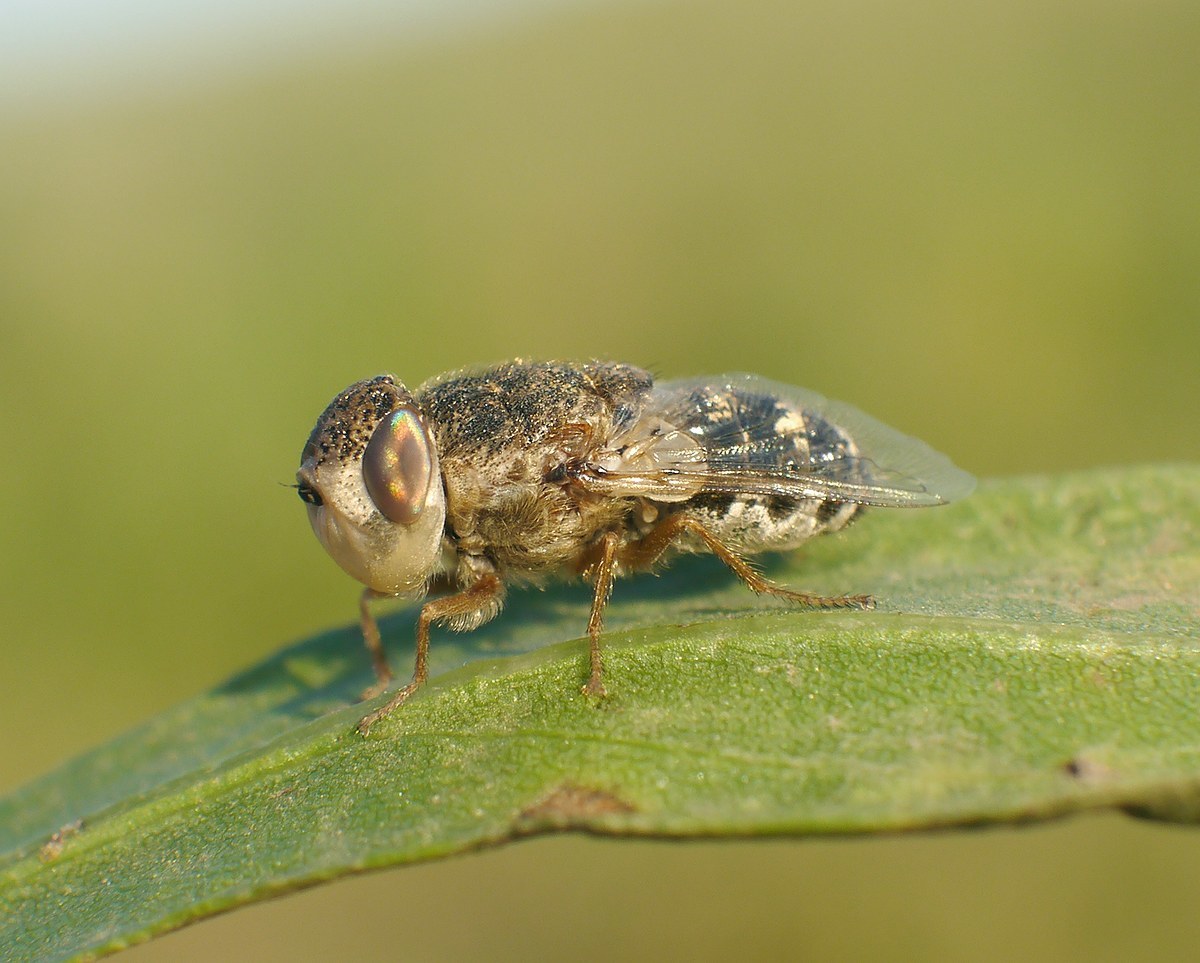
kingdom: Animalia
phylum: Arthropoda
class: Insecta
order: Diptera
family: Oestridae
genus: Oestrus
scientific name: Oestrus ovis
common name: Sheep botfly
